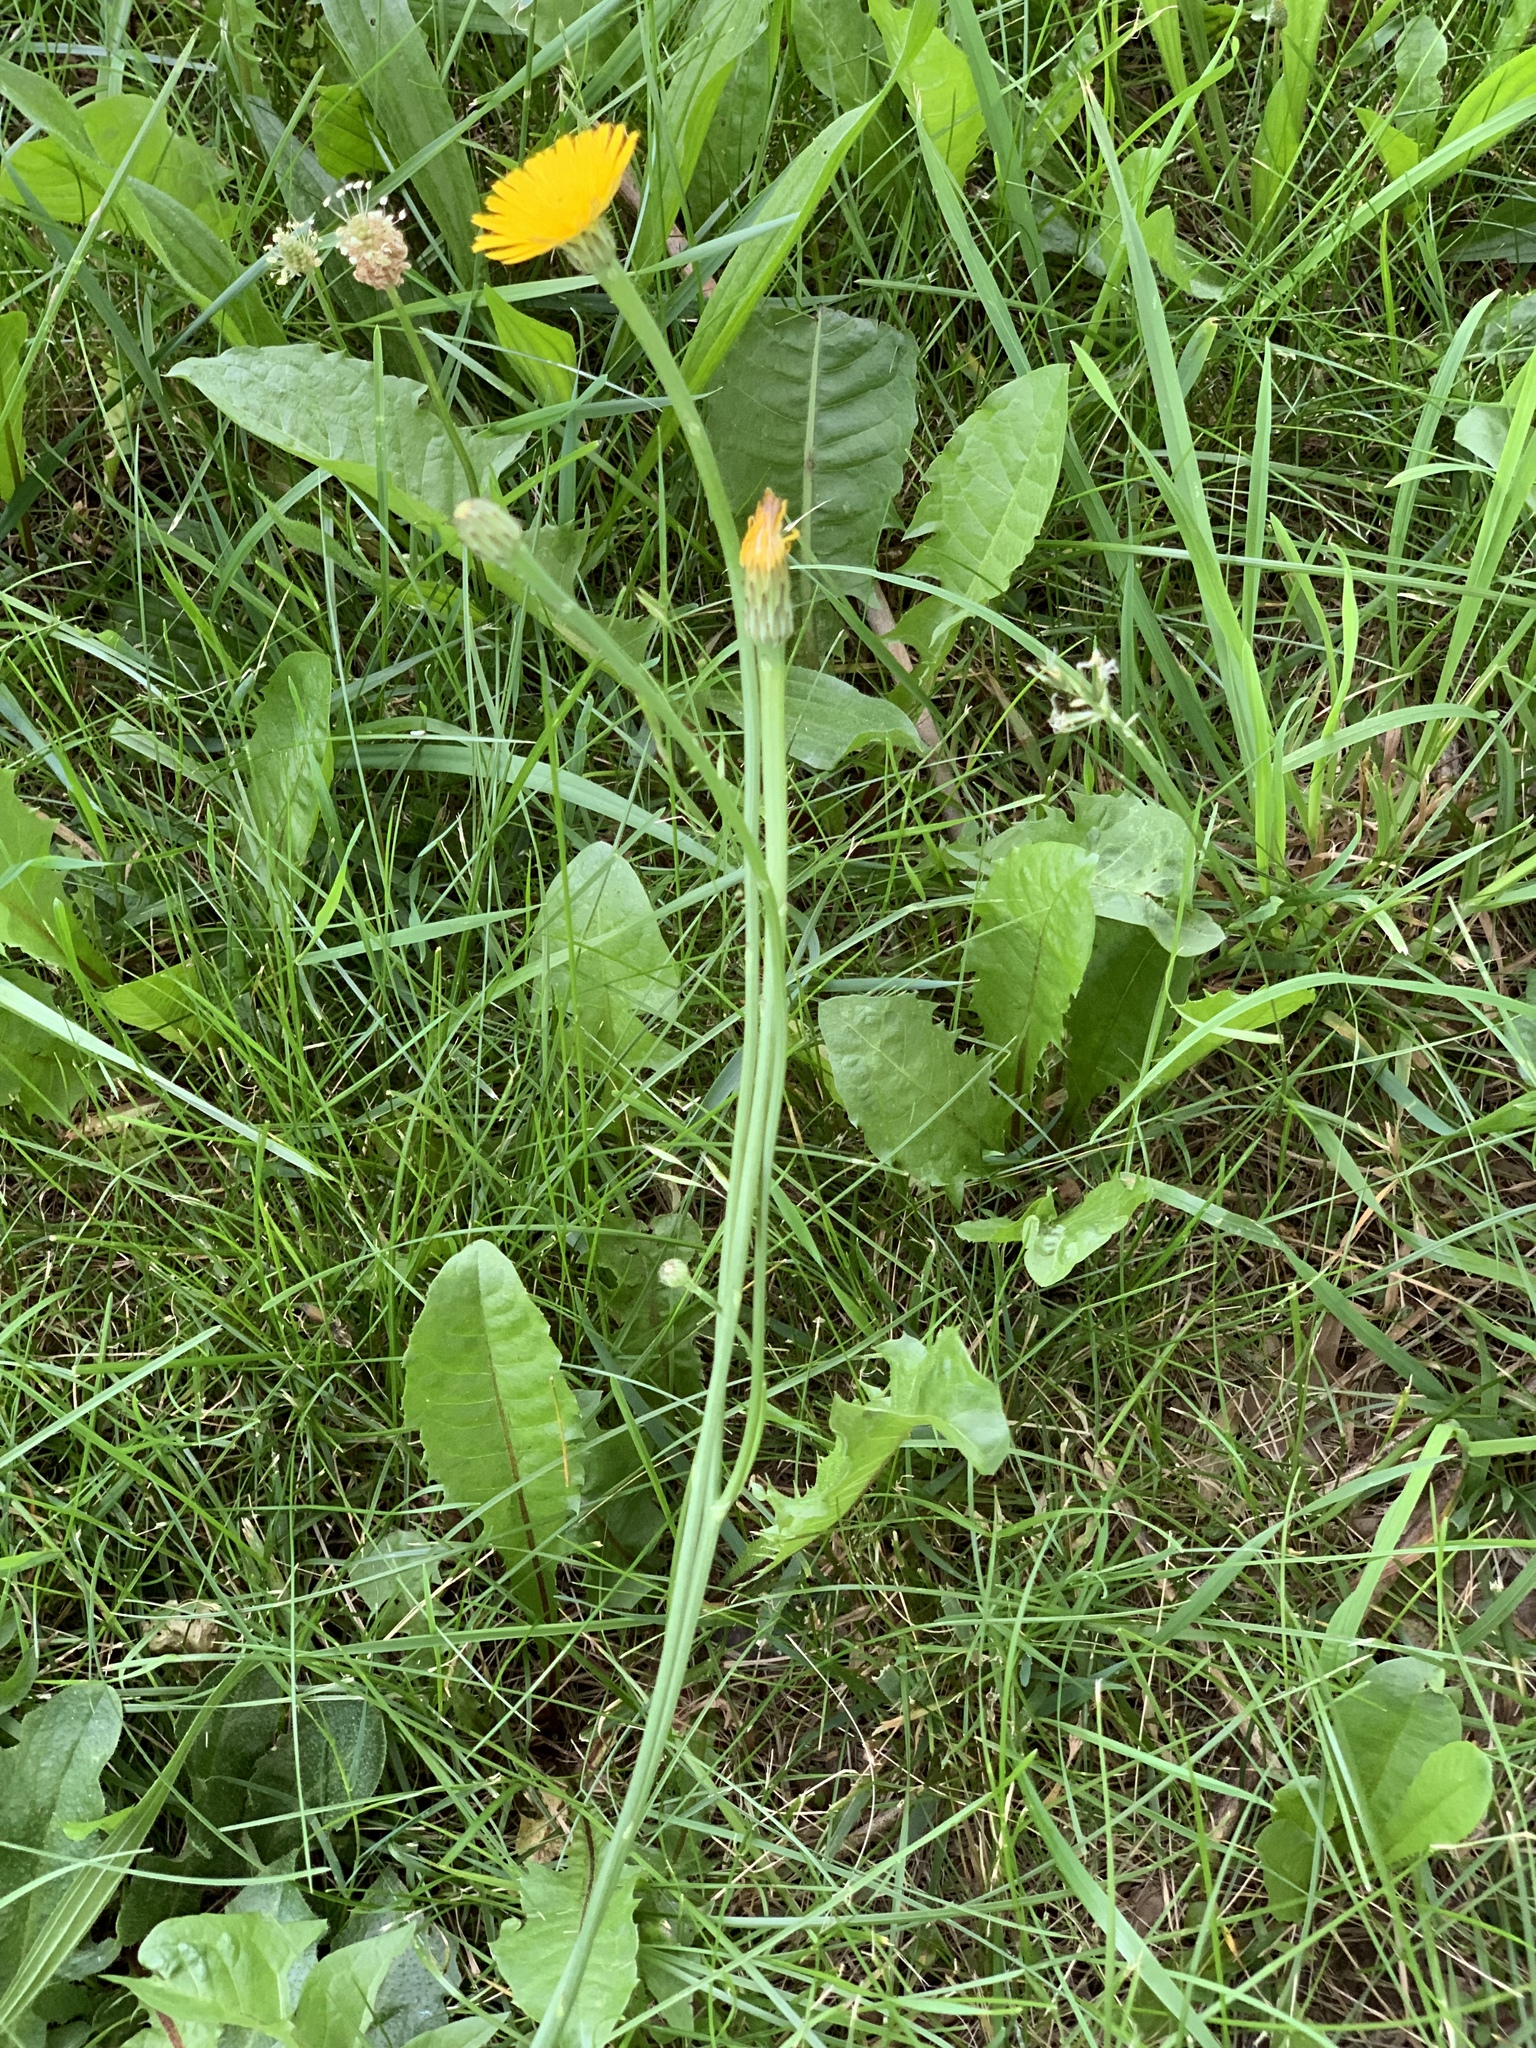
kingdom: Plantae
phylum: Tracheophyta
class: Magnoliopsida
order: Asterales
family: Asteraceae
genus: Hypochaeris
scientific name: Hypochaeris radicata
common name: Flatweed
